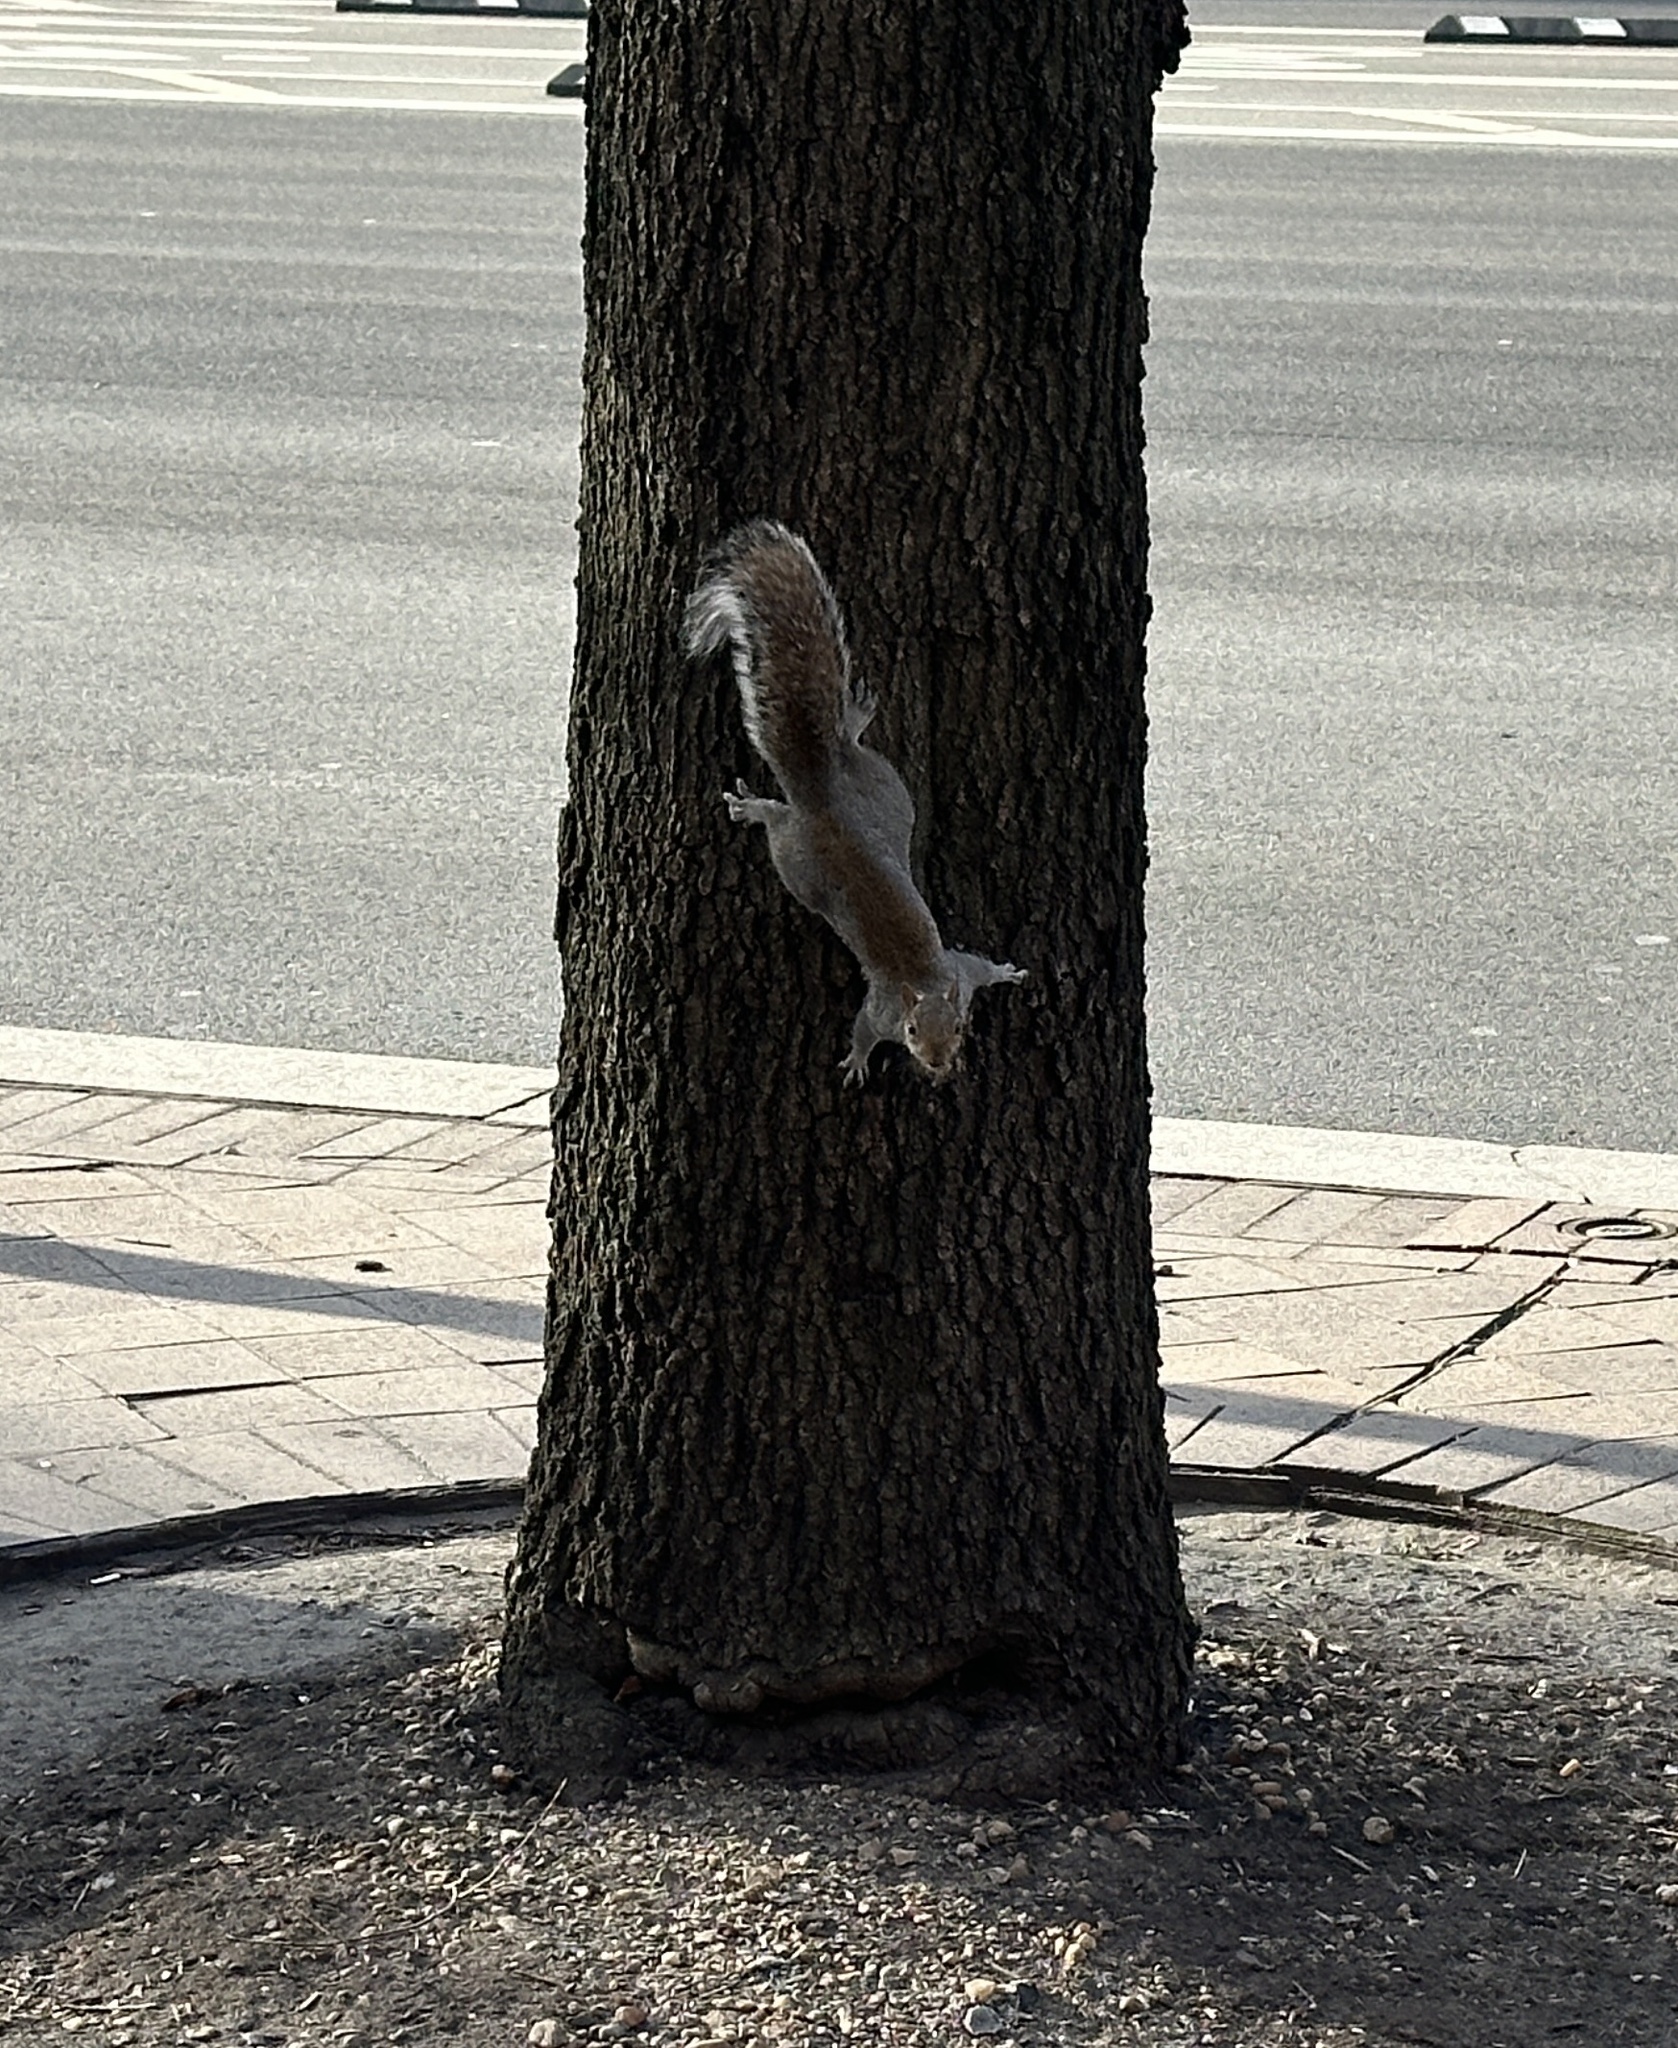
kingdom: Animalia
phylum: Chordata
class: Mammalia
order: Rodentia
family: Sciuridae
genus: Sciurus
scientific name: Sciurus carolinensis
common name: Eastern gray squirrel
